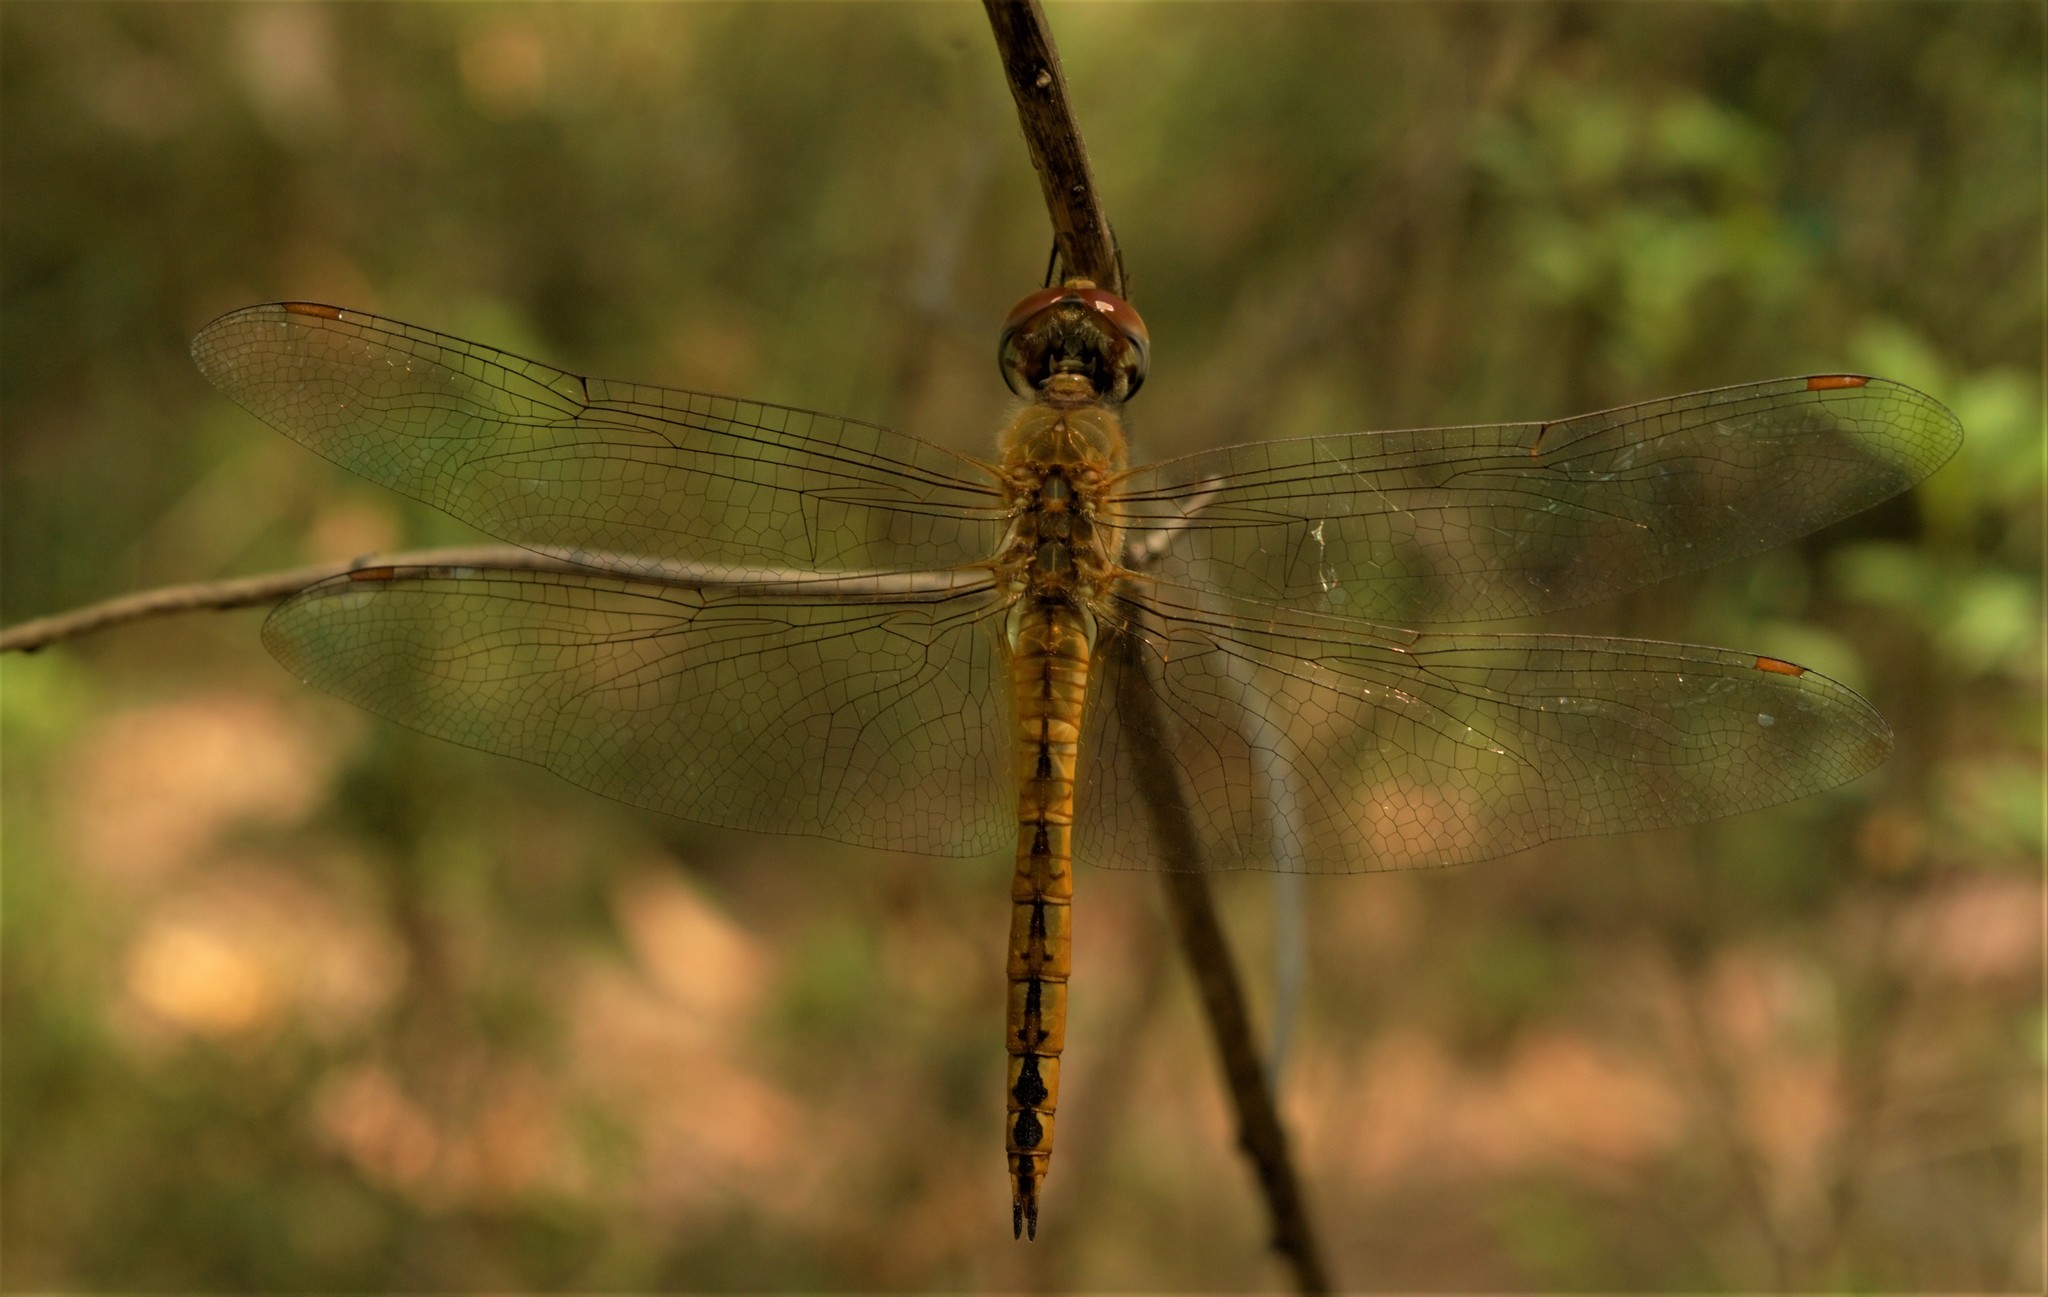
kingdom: Animalia
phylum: Arthropoda
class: Insecta
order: Odonata
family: Libellulidae
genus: Pantala
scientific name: Pantala flavescens
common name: Wandering glider
